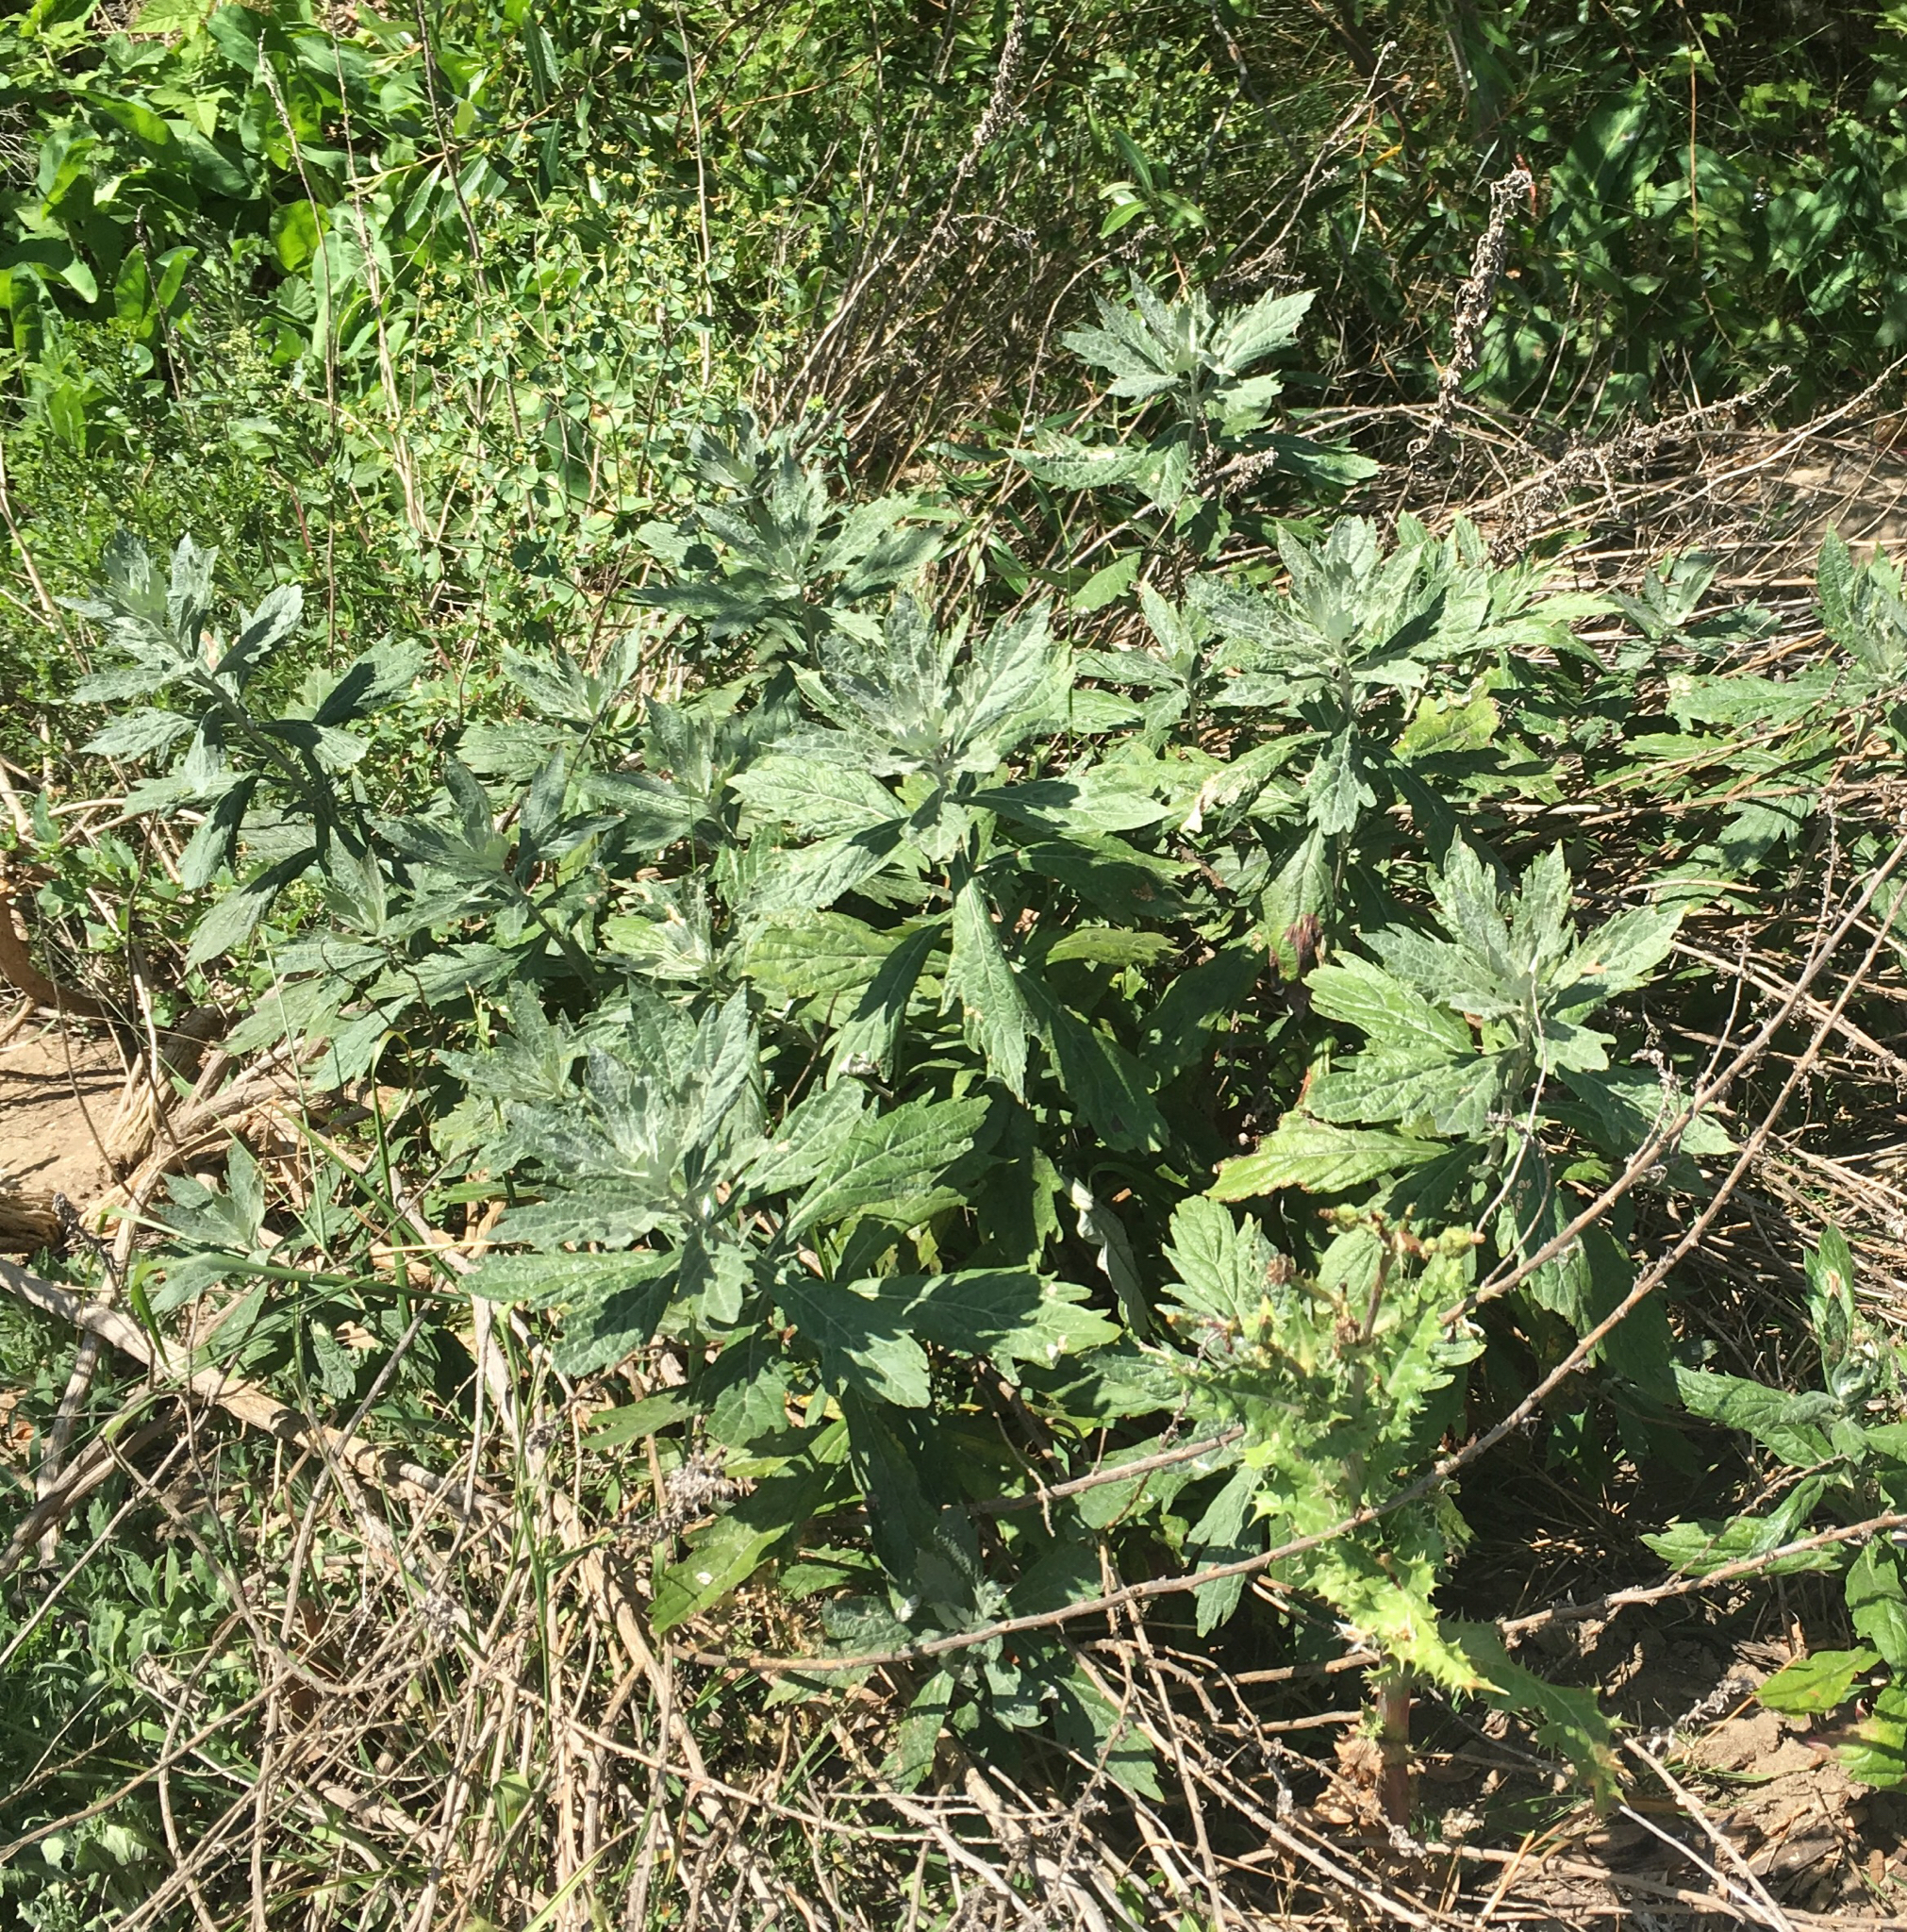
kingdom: Plantae
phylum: Tracheophyta
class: Magnoliopsida
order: Asterales
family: Asteraceae
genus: Artemisia
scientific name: Artemisia douglasiana
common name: Northwest mugwort
